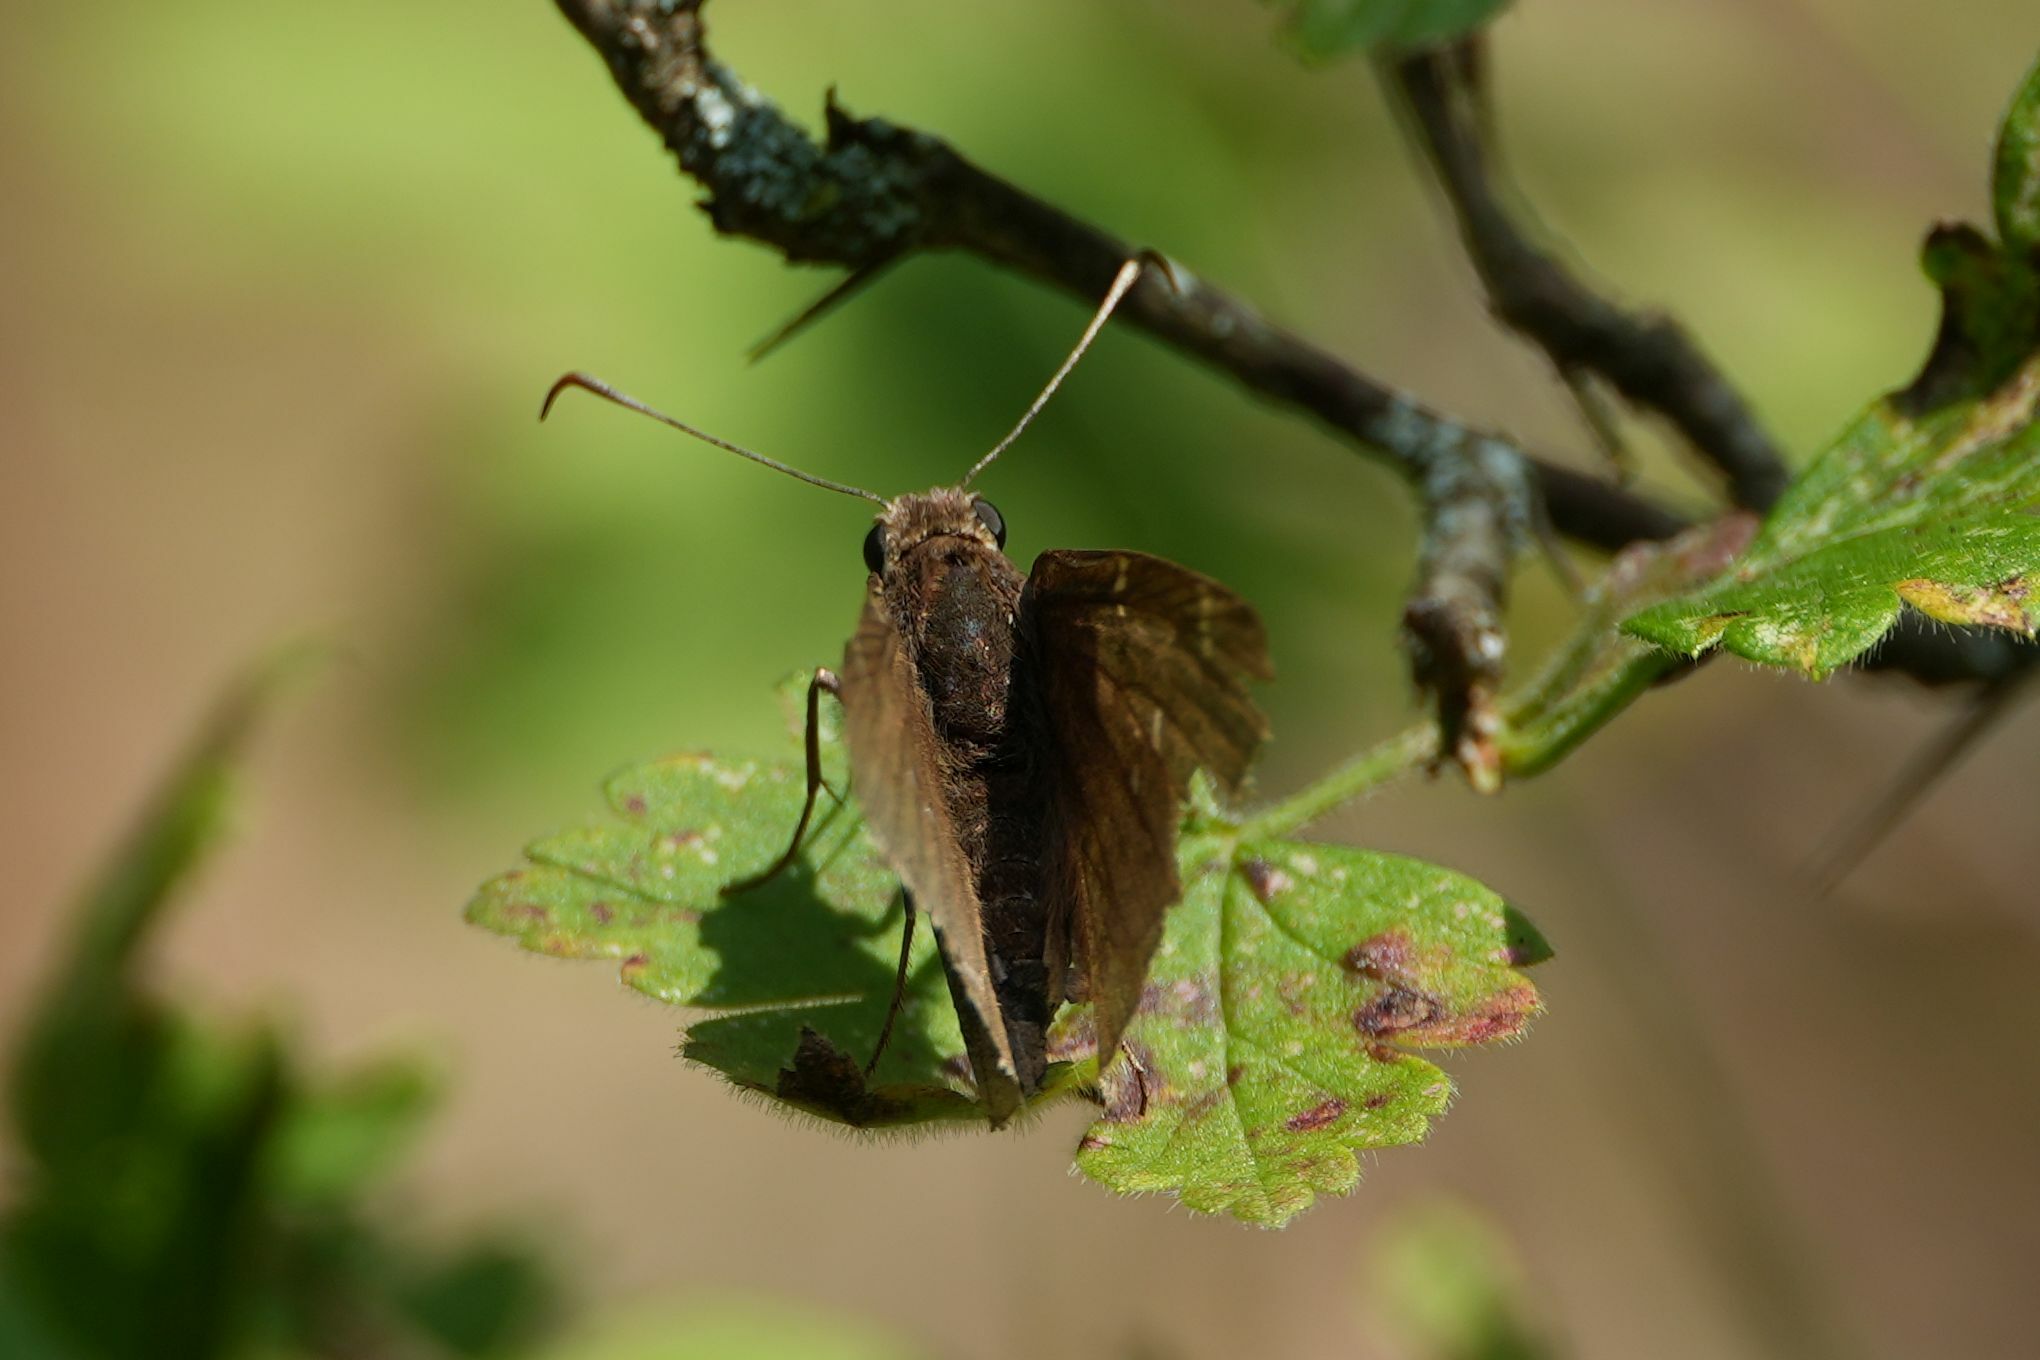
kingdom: Animalia
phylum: Arthropoda
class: Insecta
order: Lepidoptera
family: Hesperiidae
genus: Thorybes
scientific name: Thorybes pylades
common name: Northern cloudywing
